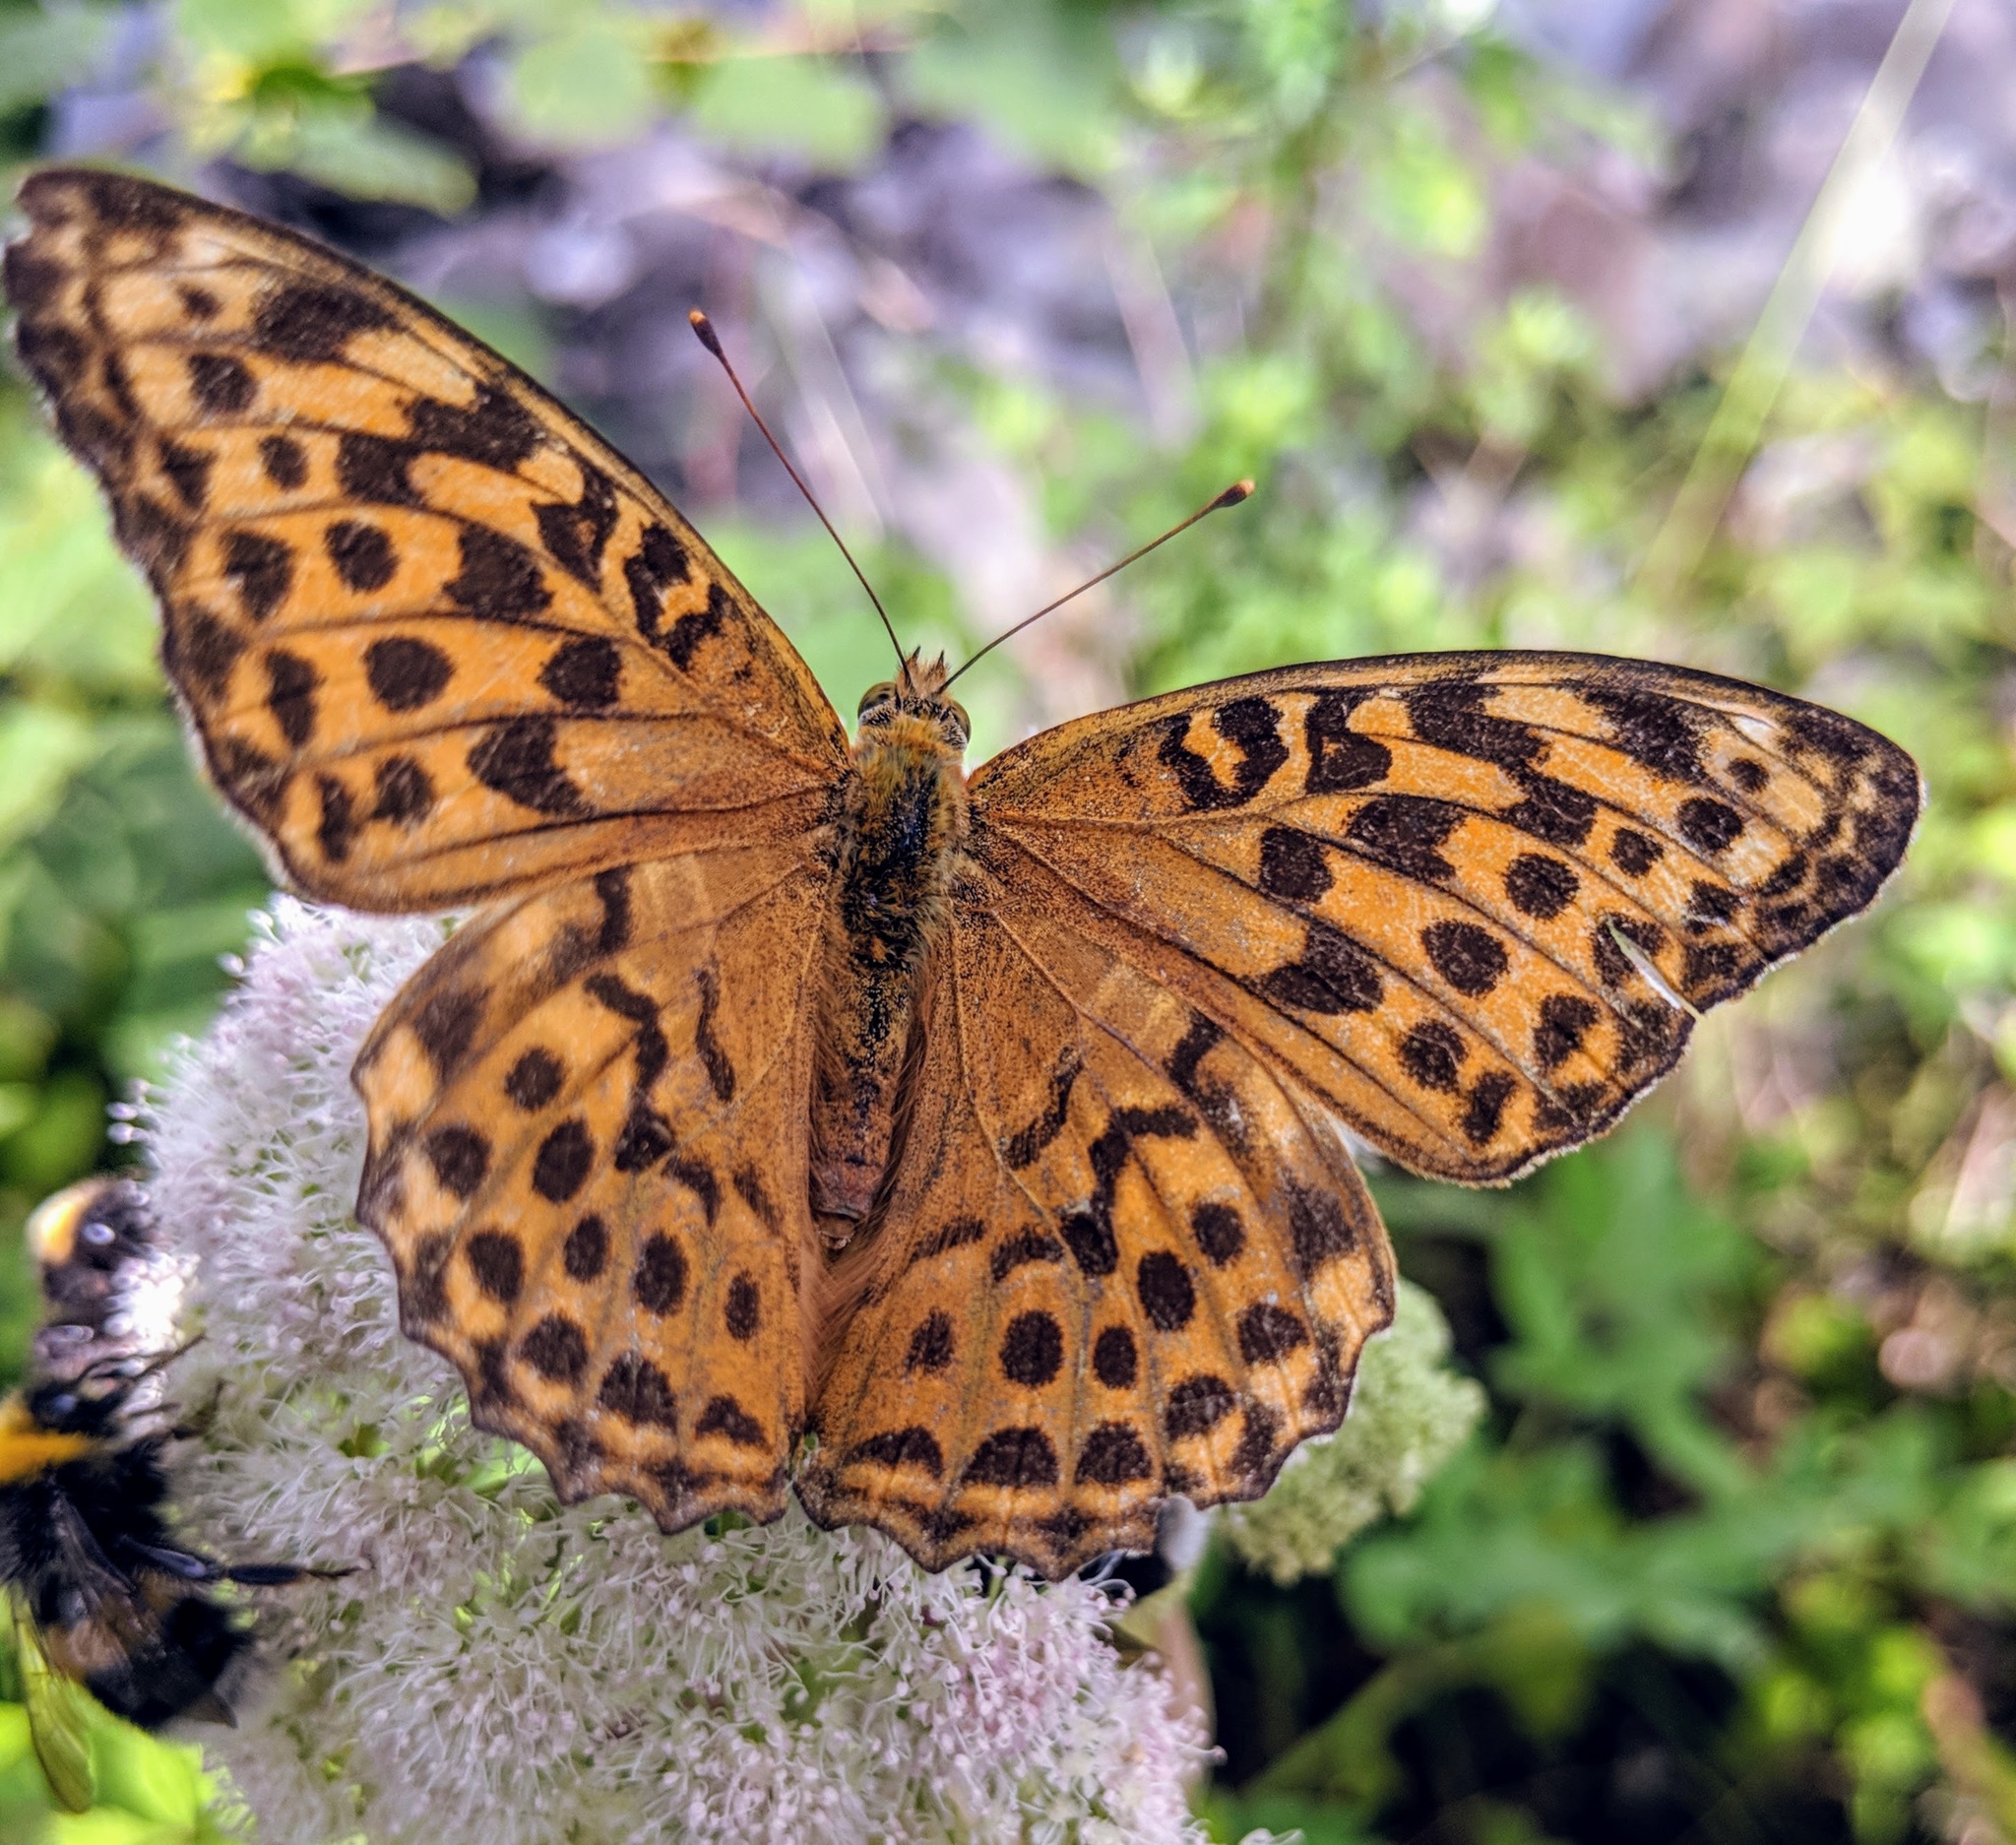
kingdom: Animalia
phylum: Arthropoda
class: Insecta
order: Lepidoptera
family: Nymphalidae
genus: Argynnis
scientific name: Argynnis paphia
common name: Silver-washed fritillary
